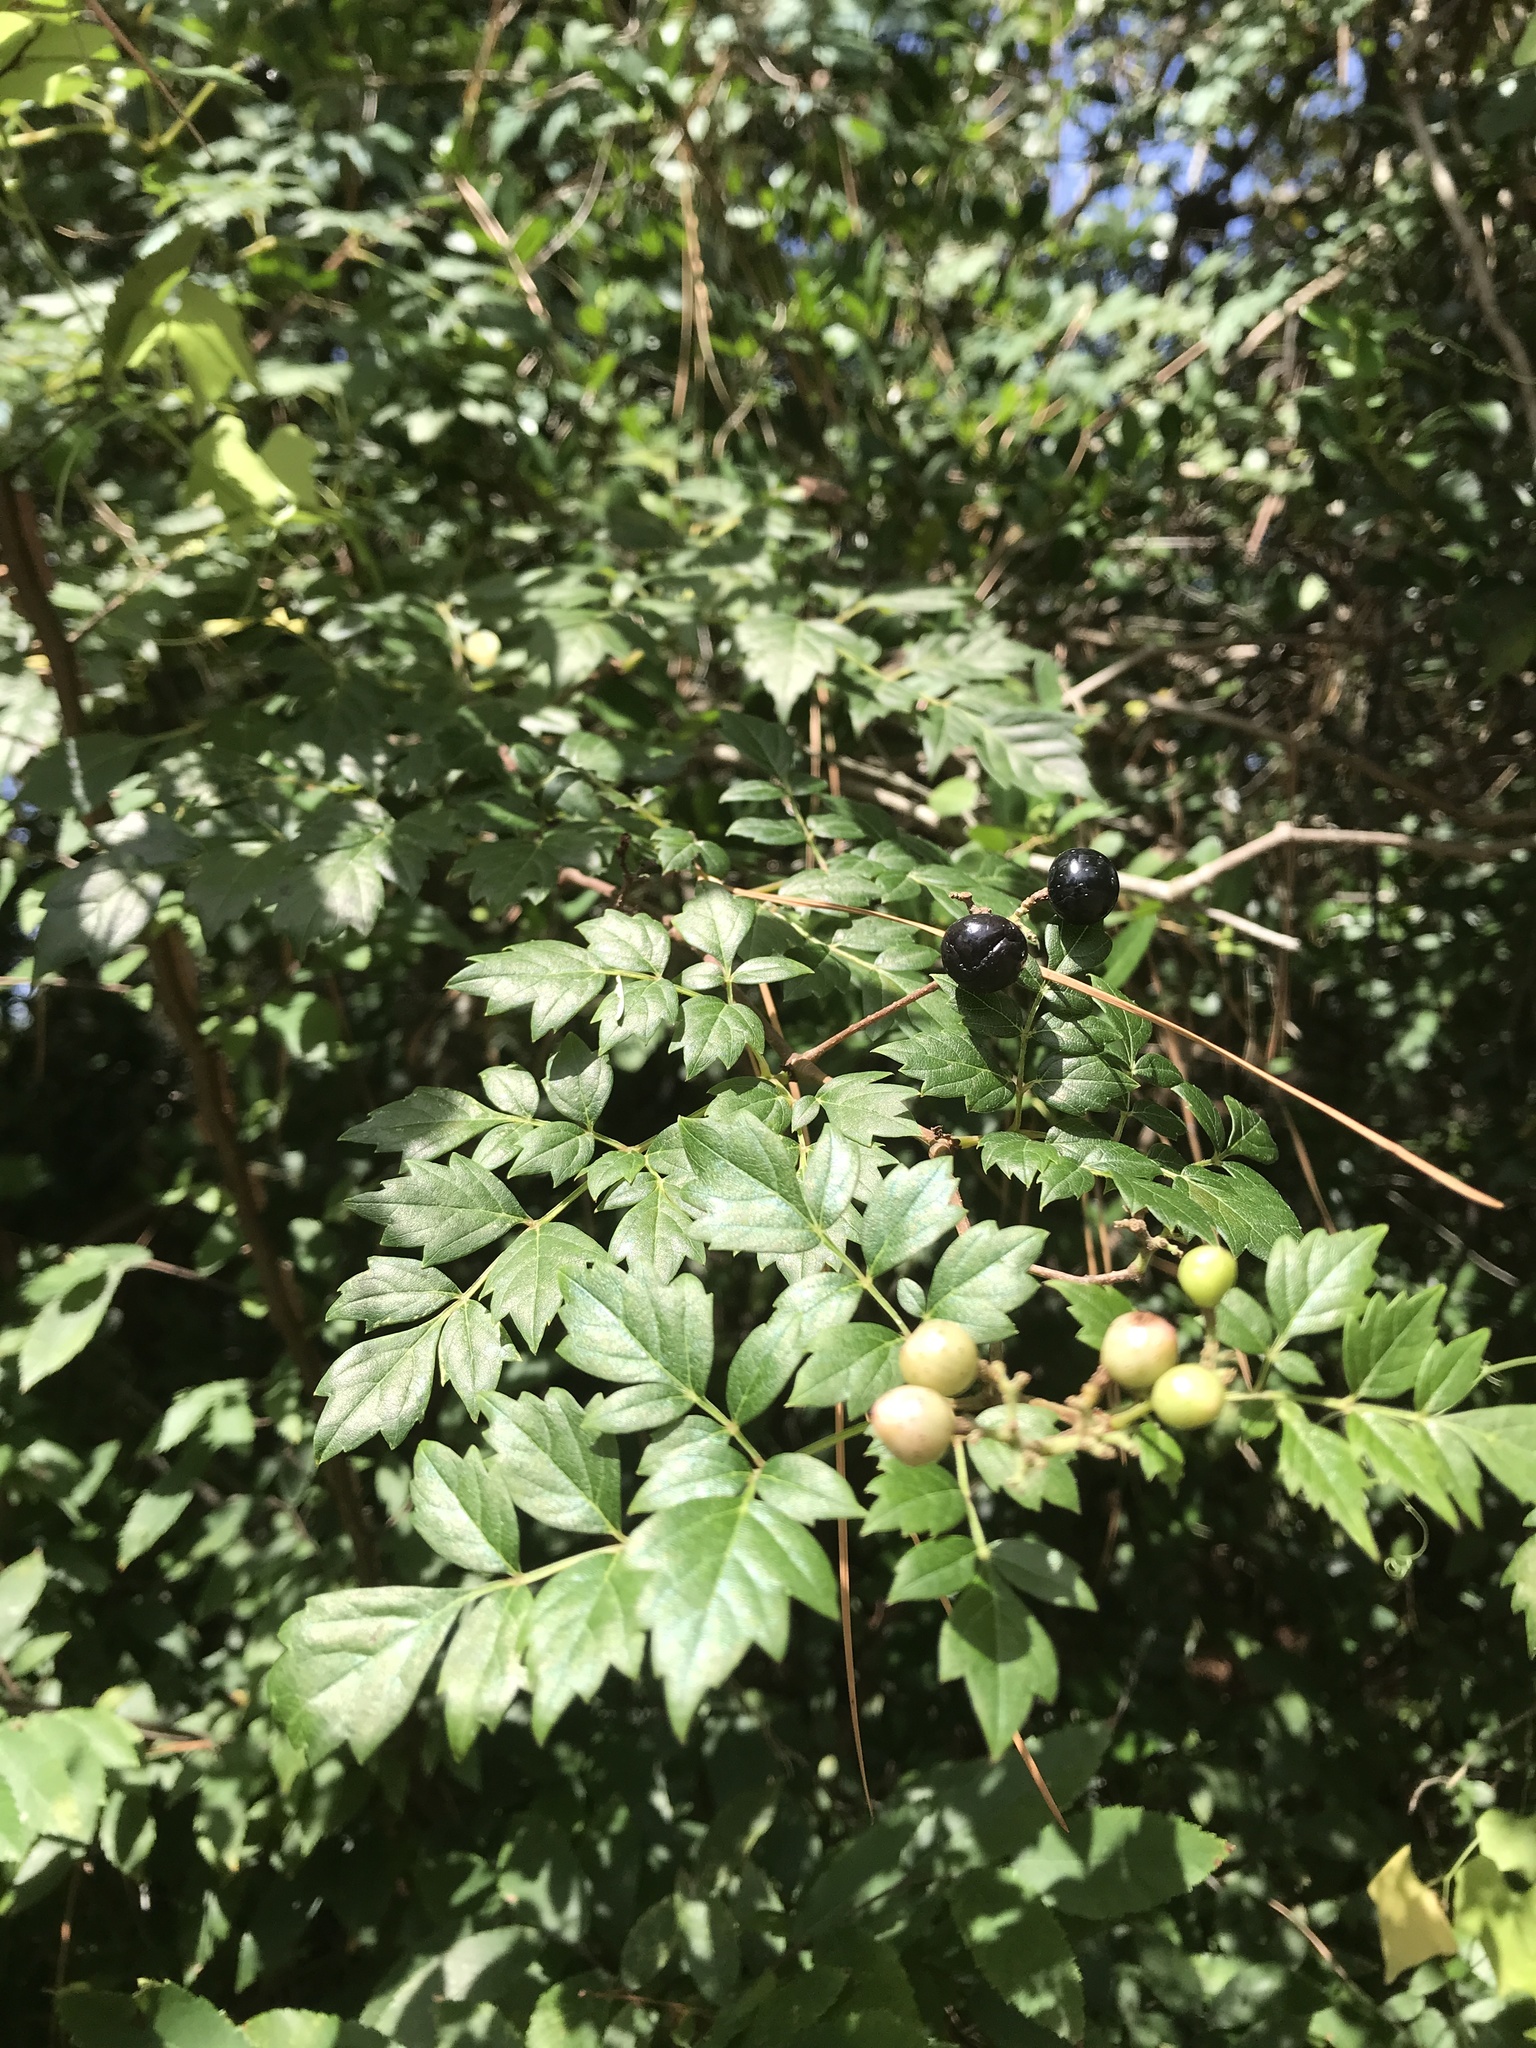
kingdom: Plantae
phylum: Tracheophyta
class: Magnoliopsida
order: Vitales
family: Vitaceae
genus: Nekemias
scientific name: Nekemias arborea
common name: Peppervine
